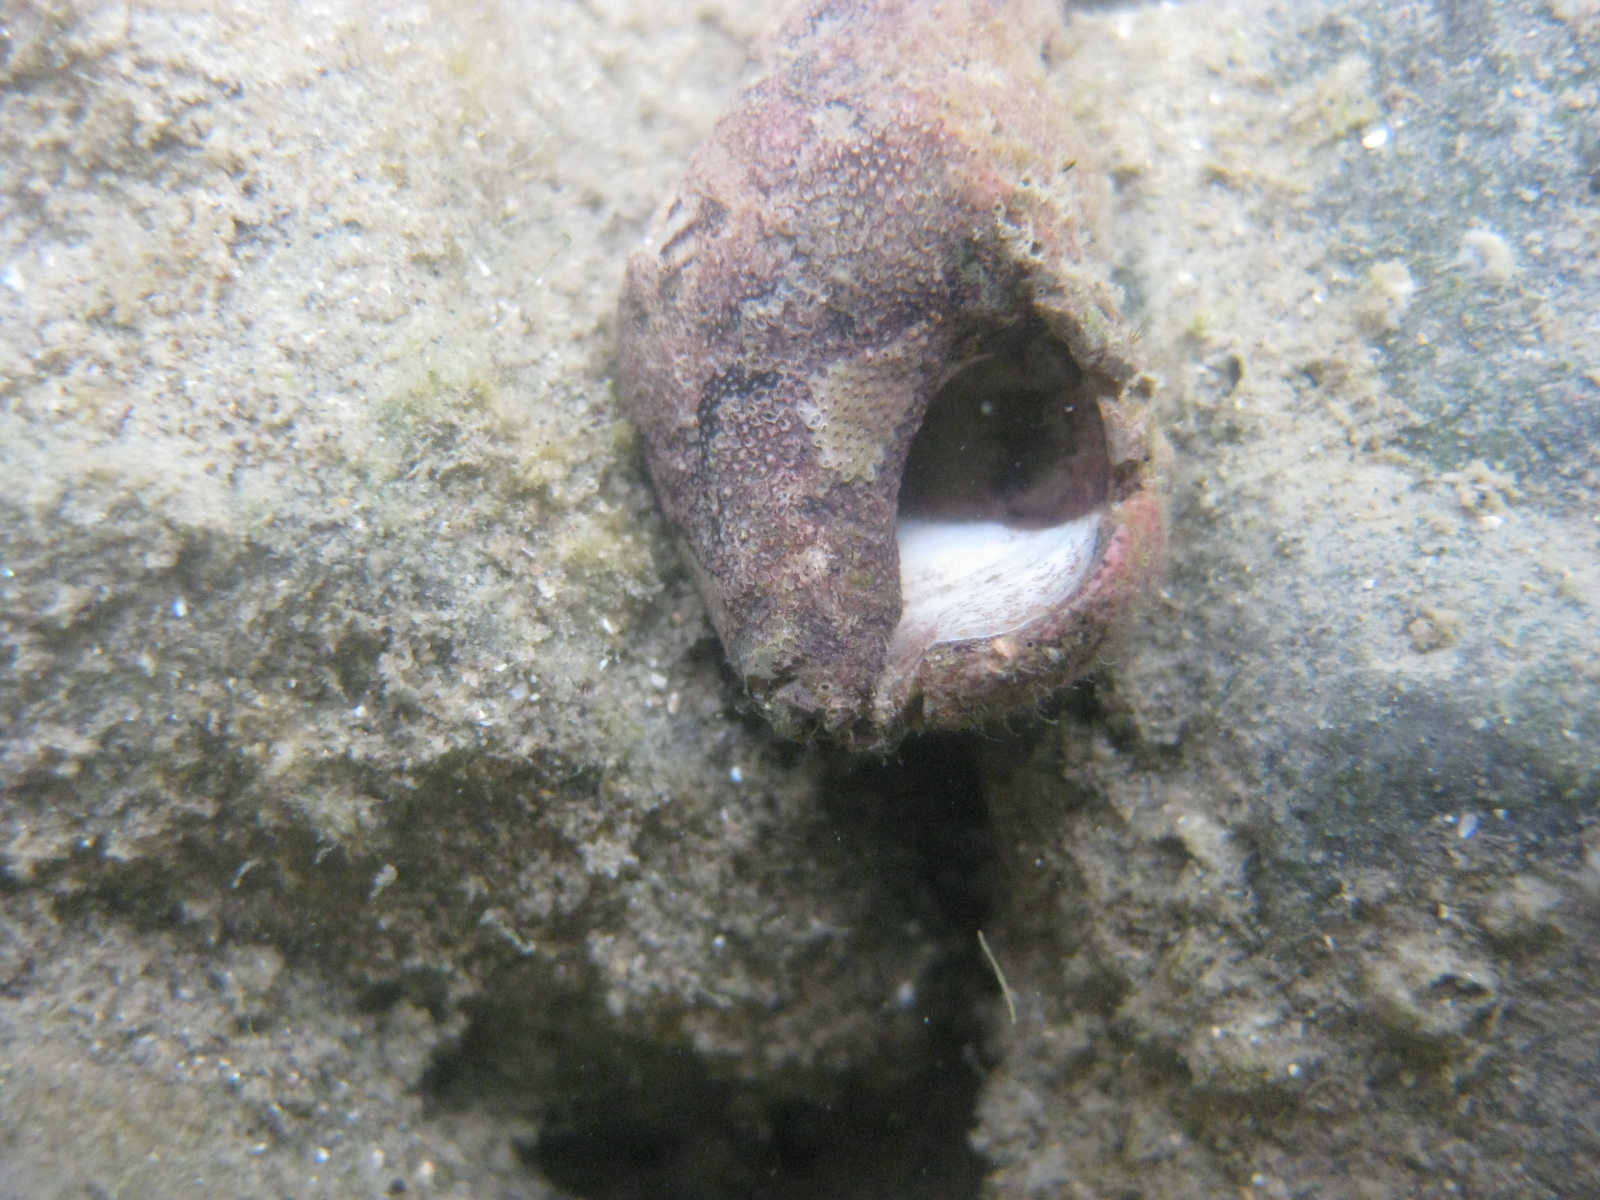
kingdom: Animalia
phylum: Mollusca
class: Gastropoda
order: Littorinimorpha
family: Calyptraeidae
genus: Maoricrypta
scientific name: Maoricrypta sodalis
